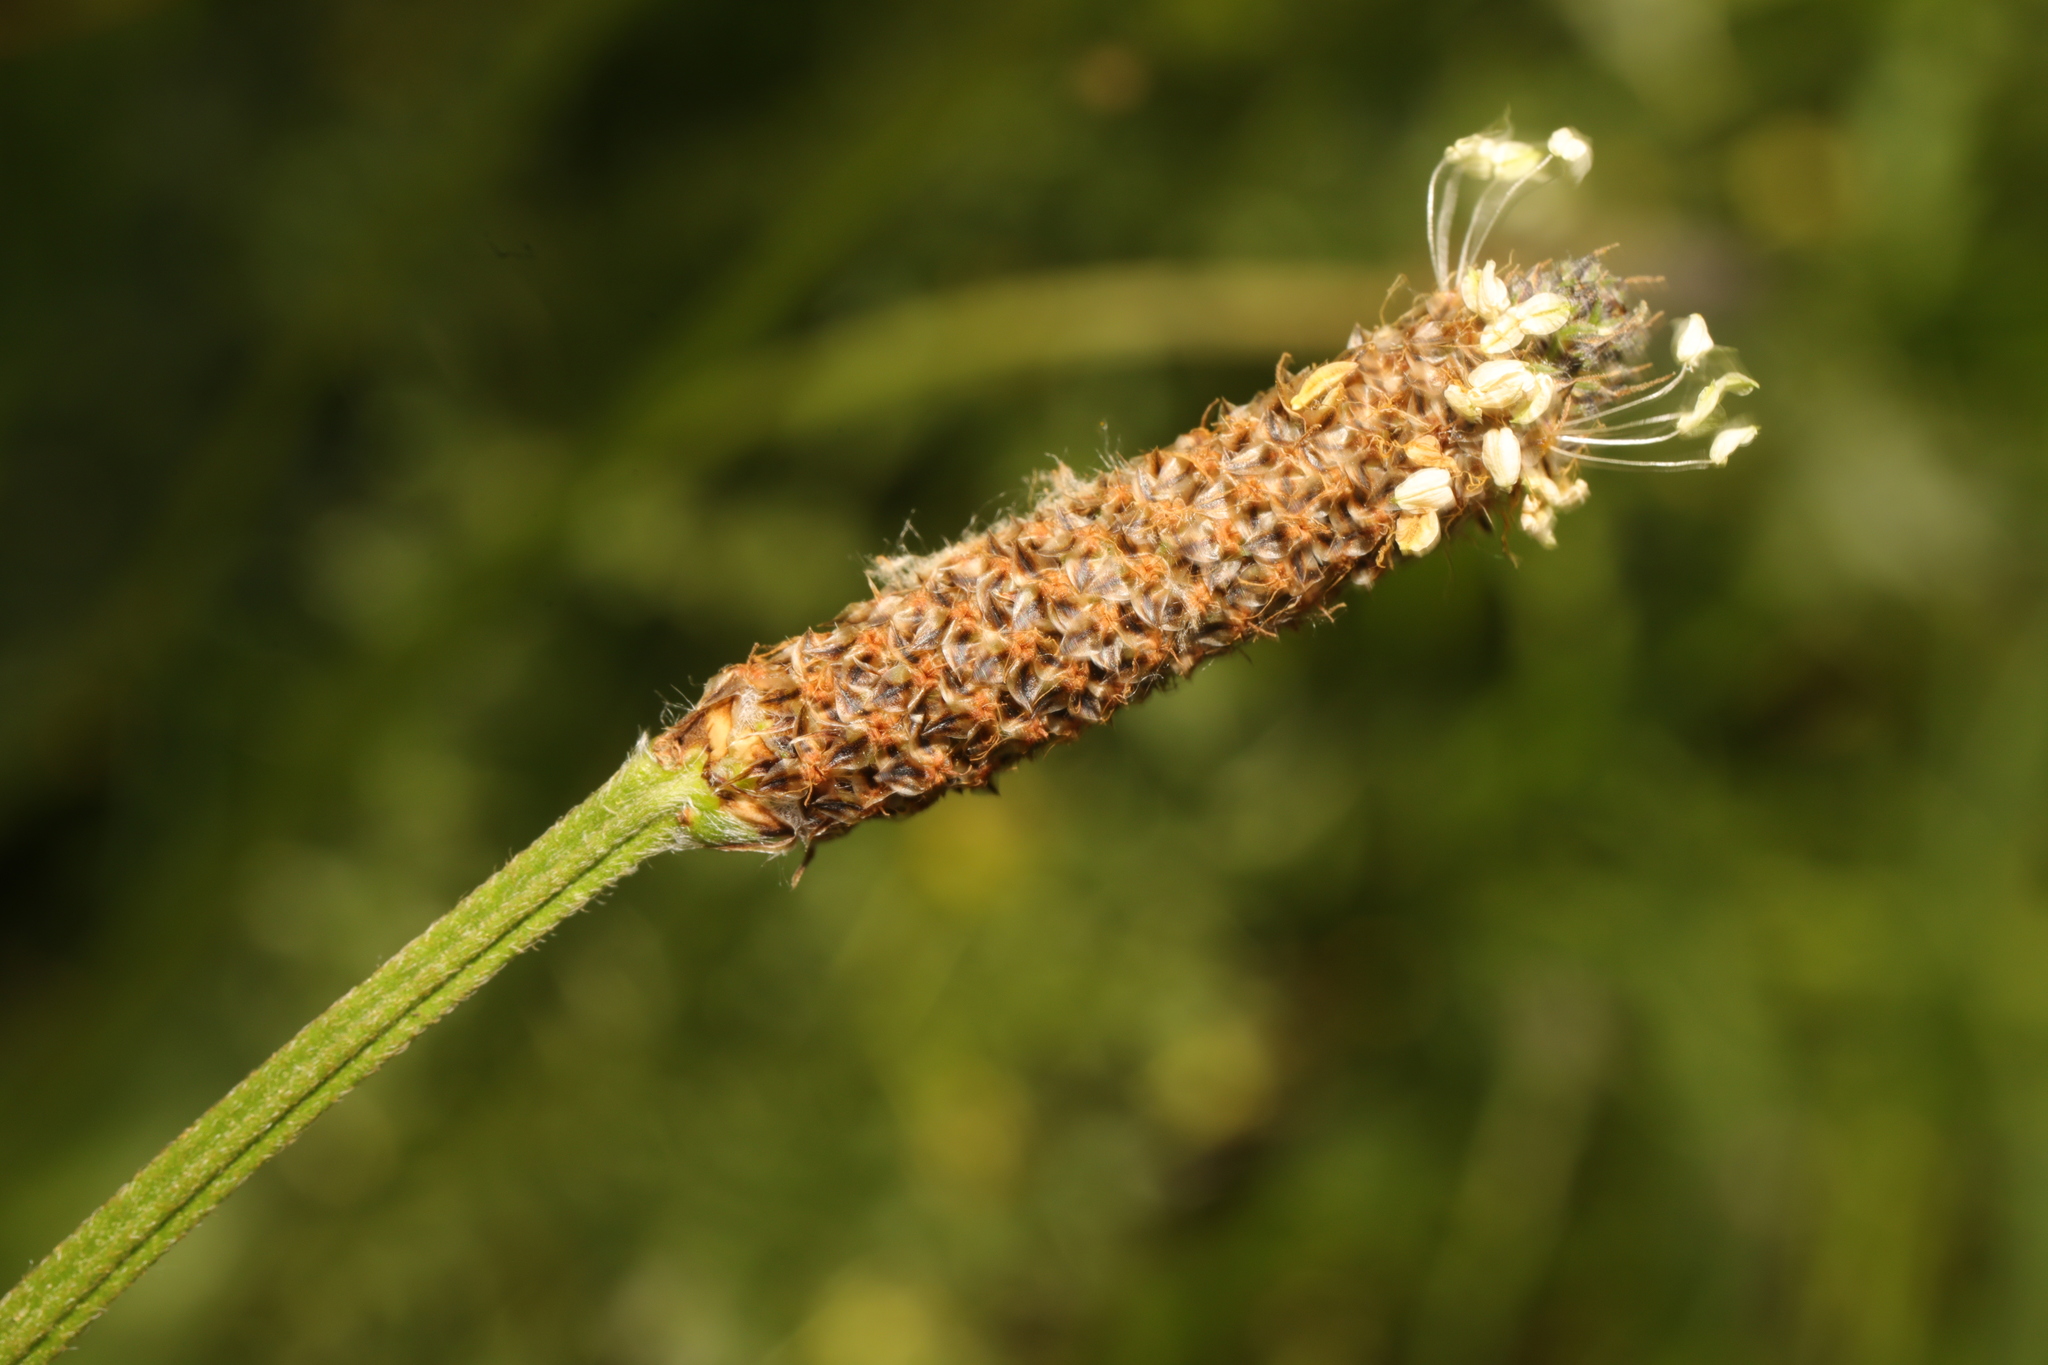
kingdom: Plantae
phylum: Tracheophyta
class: Magnoliopsida
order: Lamiales
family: Plantaginaceae
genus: Plantago
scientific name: Plantago lanceolata
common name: Ribwort plantain
